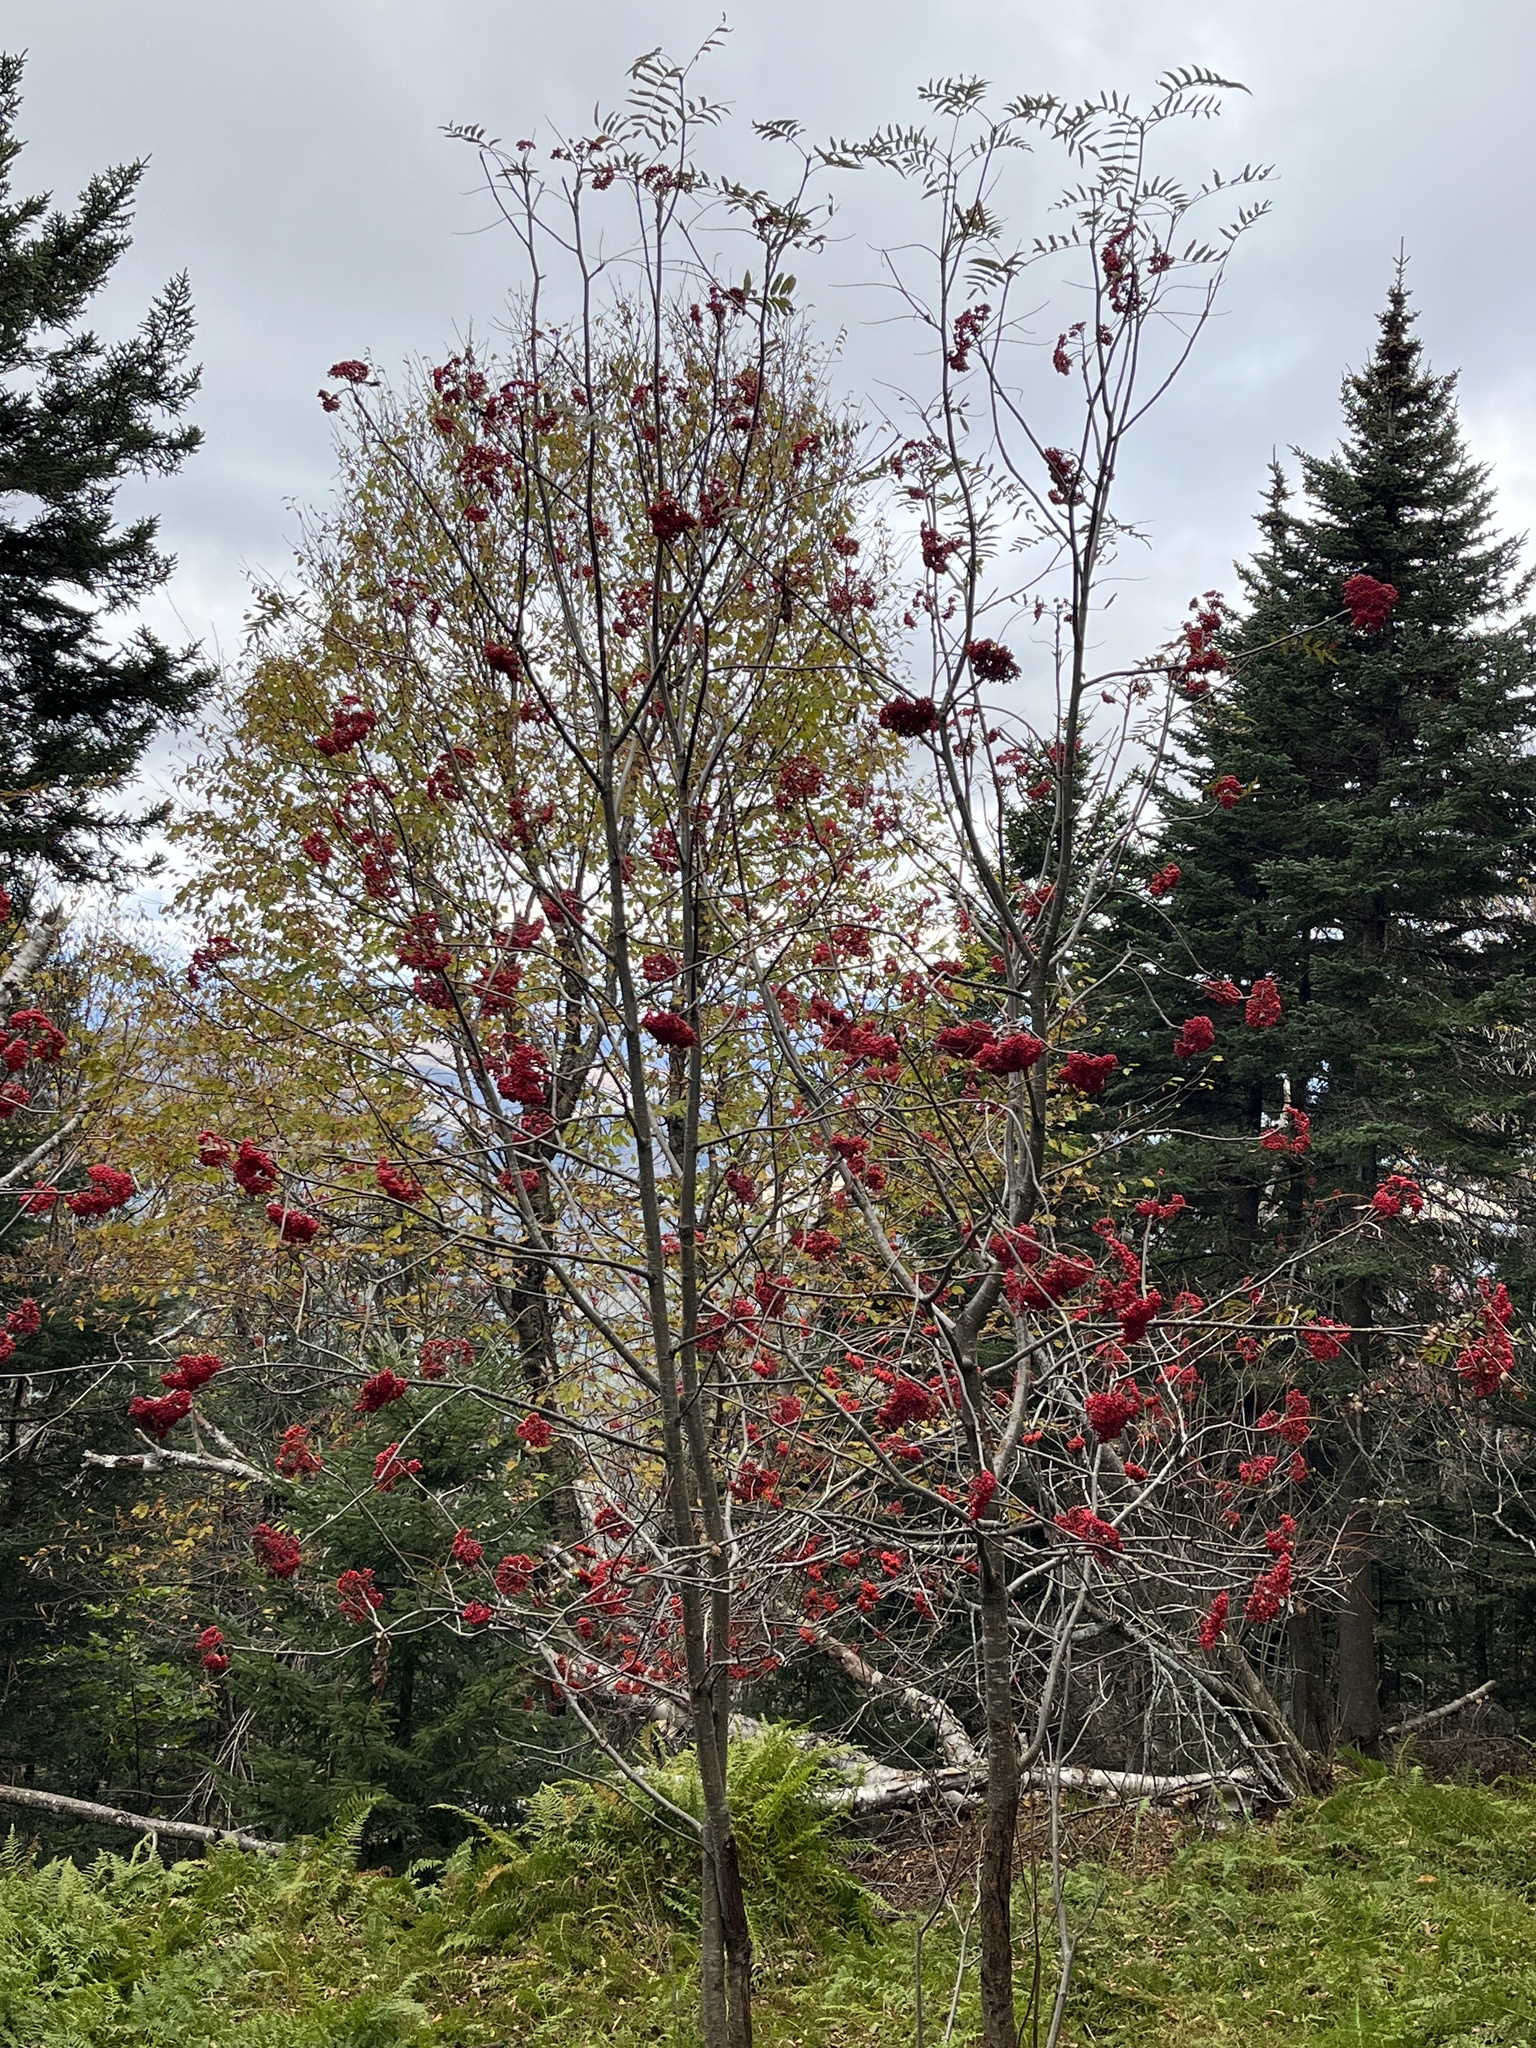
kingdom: Plantae
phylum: Tracheophyta
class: Magnoliopsida
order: Rosales
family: Rosaceae
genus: Sorbus
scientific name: Sorbus americana
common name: American mountain-ash
